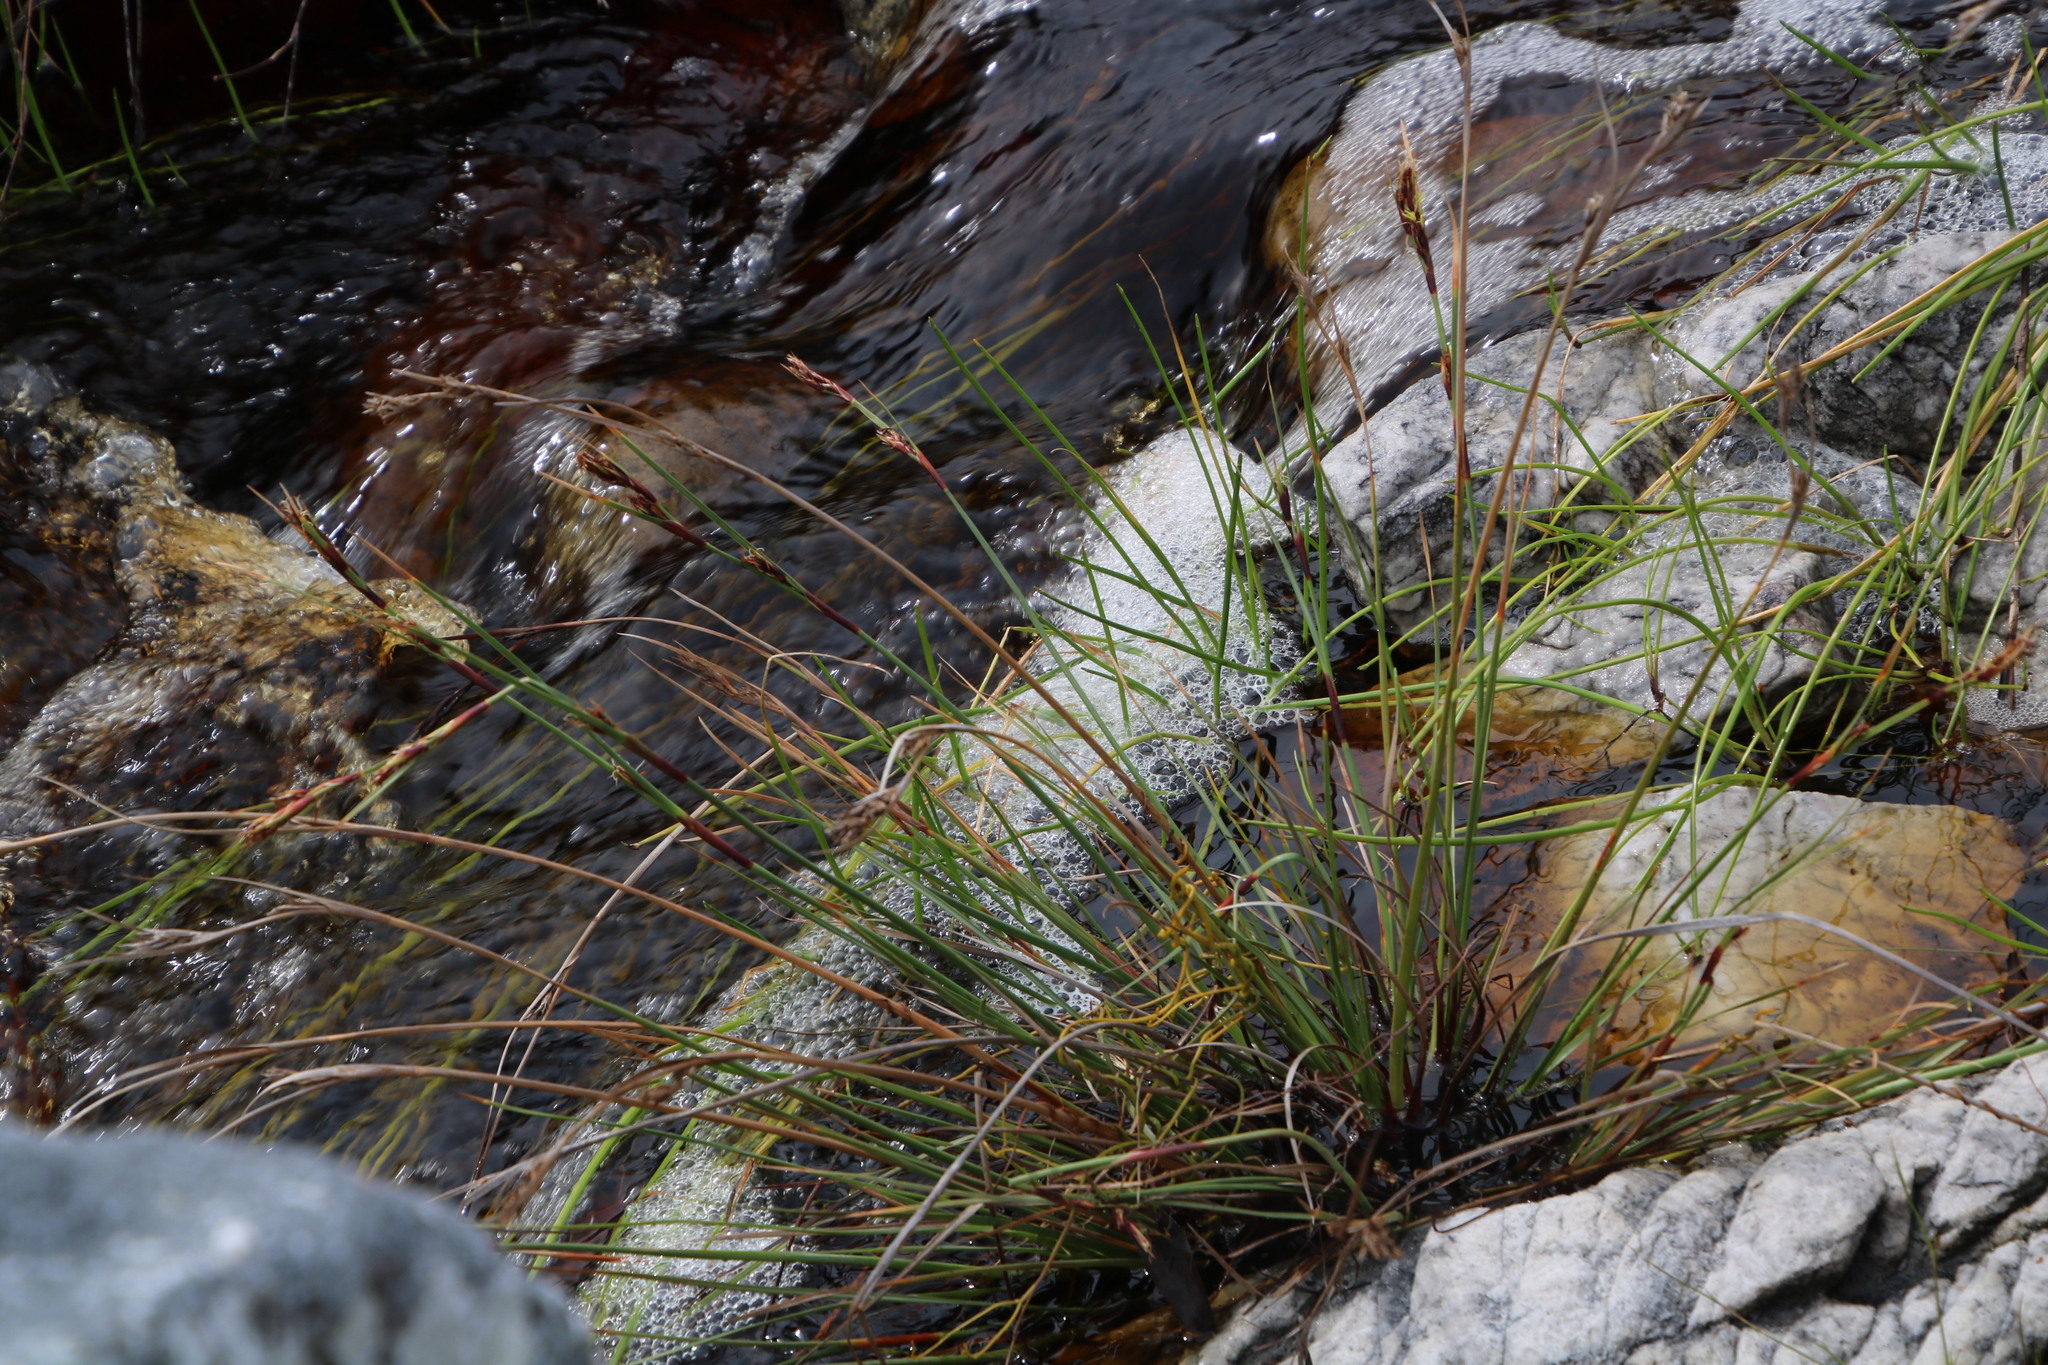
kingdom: Plantae
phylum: Tracheophyta
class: Liliopsida
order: Poales
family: Cyperaceae
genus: Cyathocoma
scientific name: Cyathocoma hexandra
